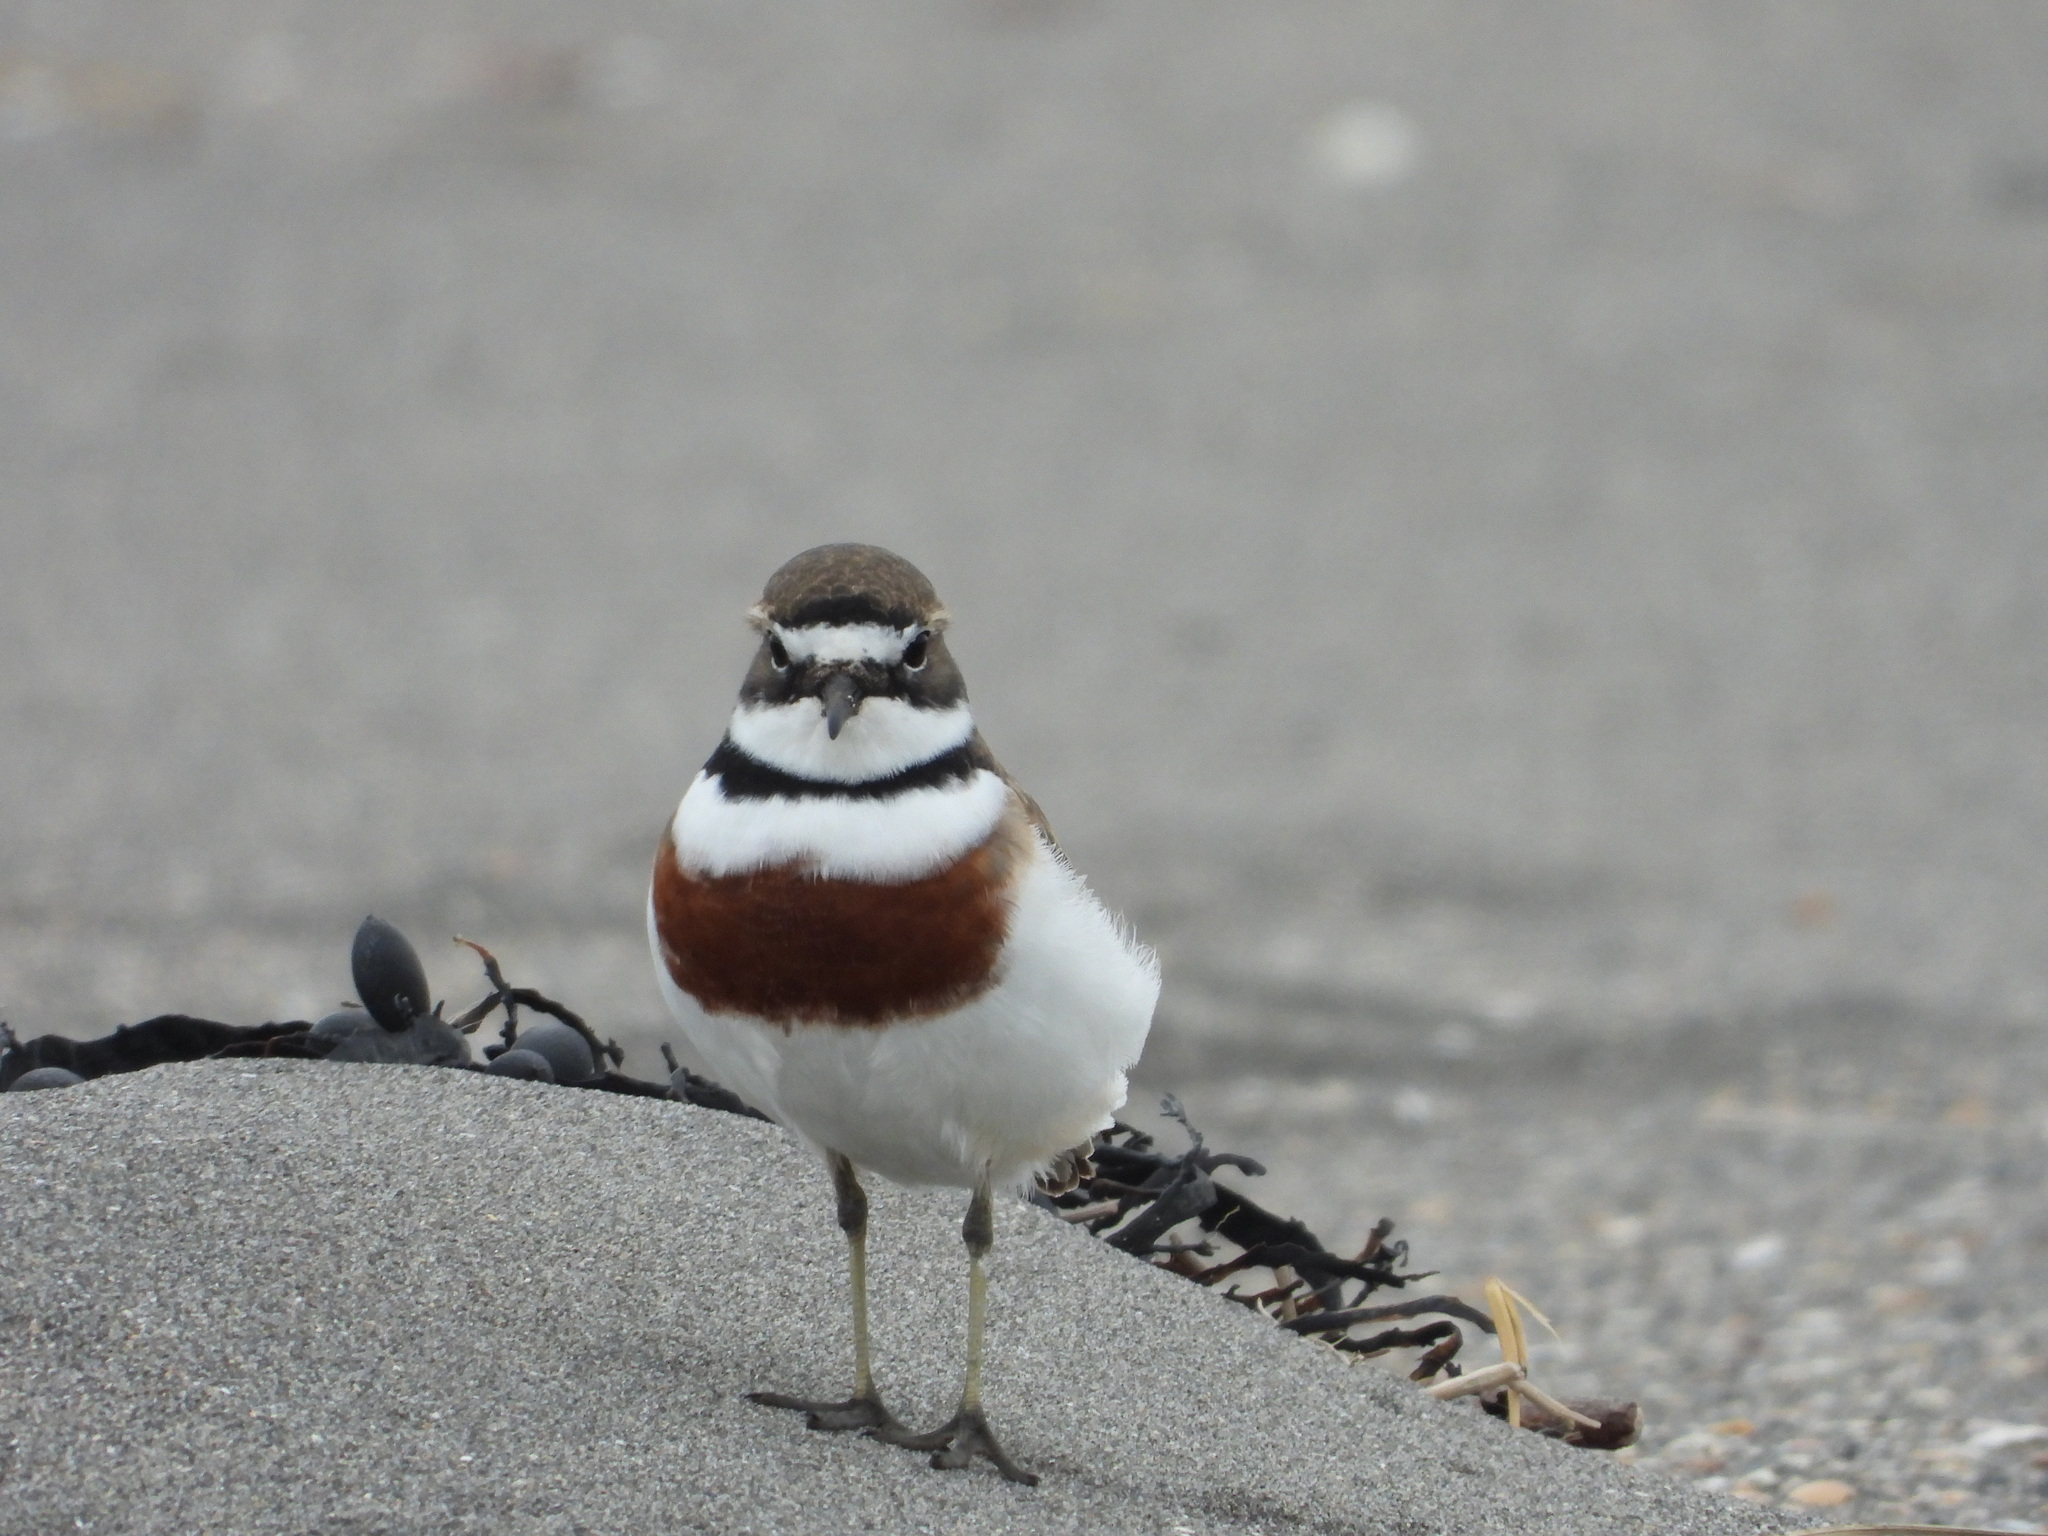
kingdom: Animalia
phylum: Chordata
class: Aves
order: Charadriiformes
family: Charadriidae
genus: Anarhynchus
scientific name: Anarhynchus
